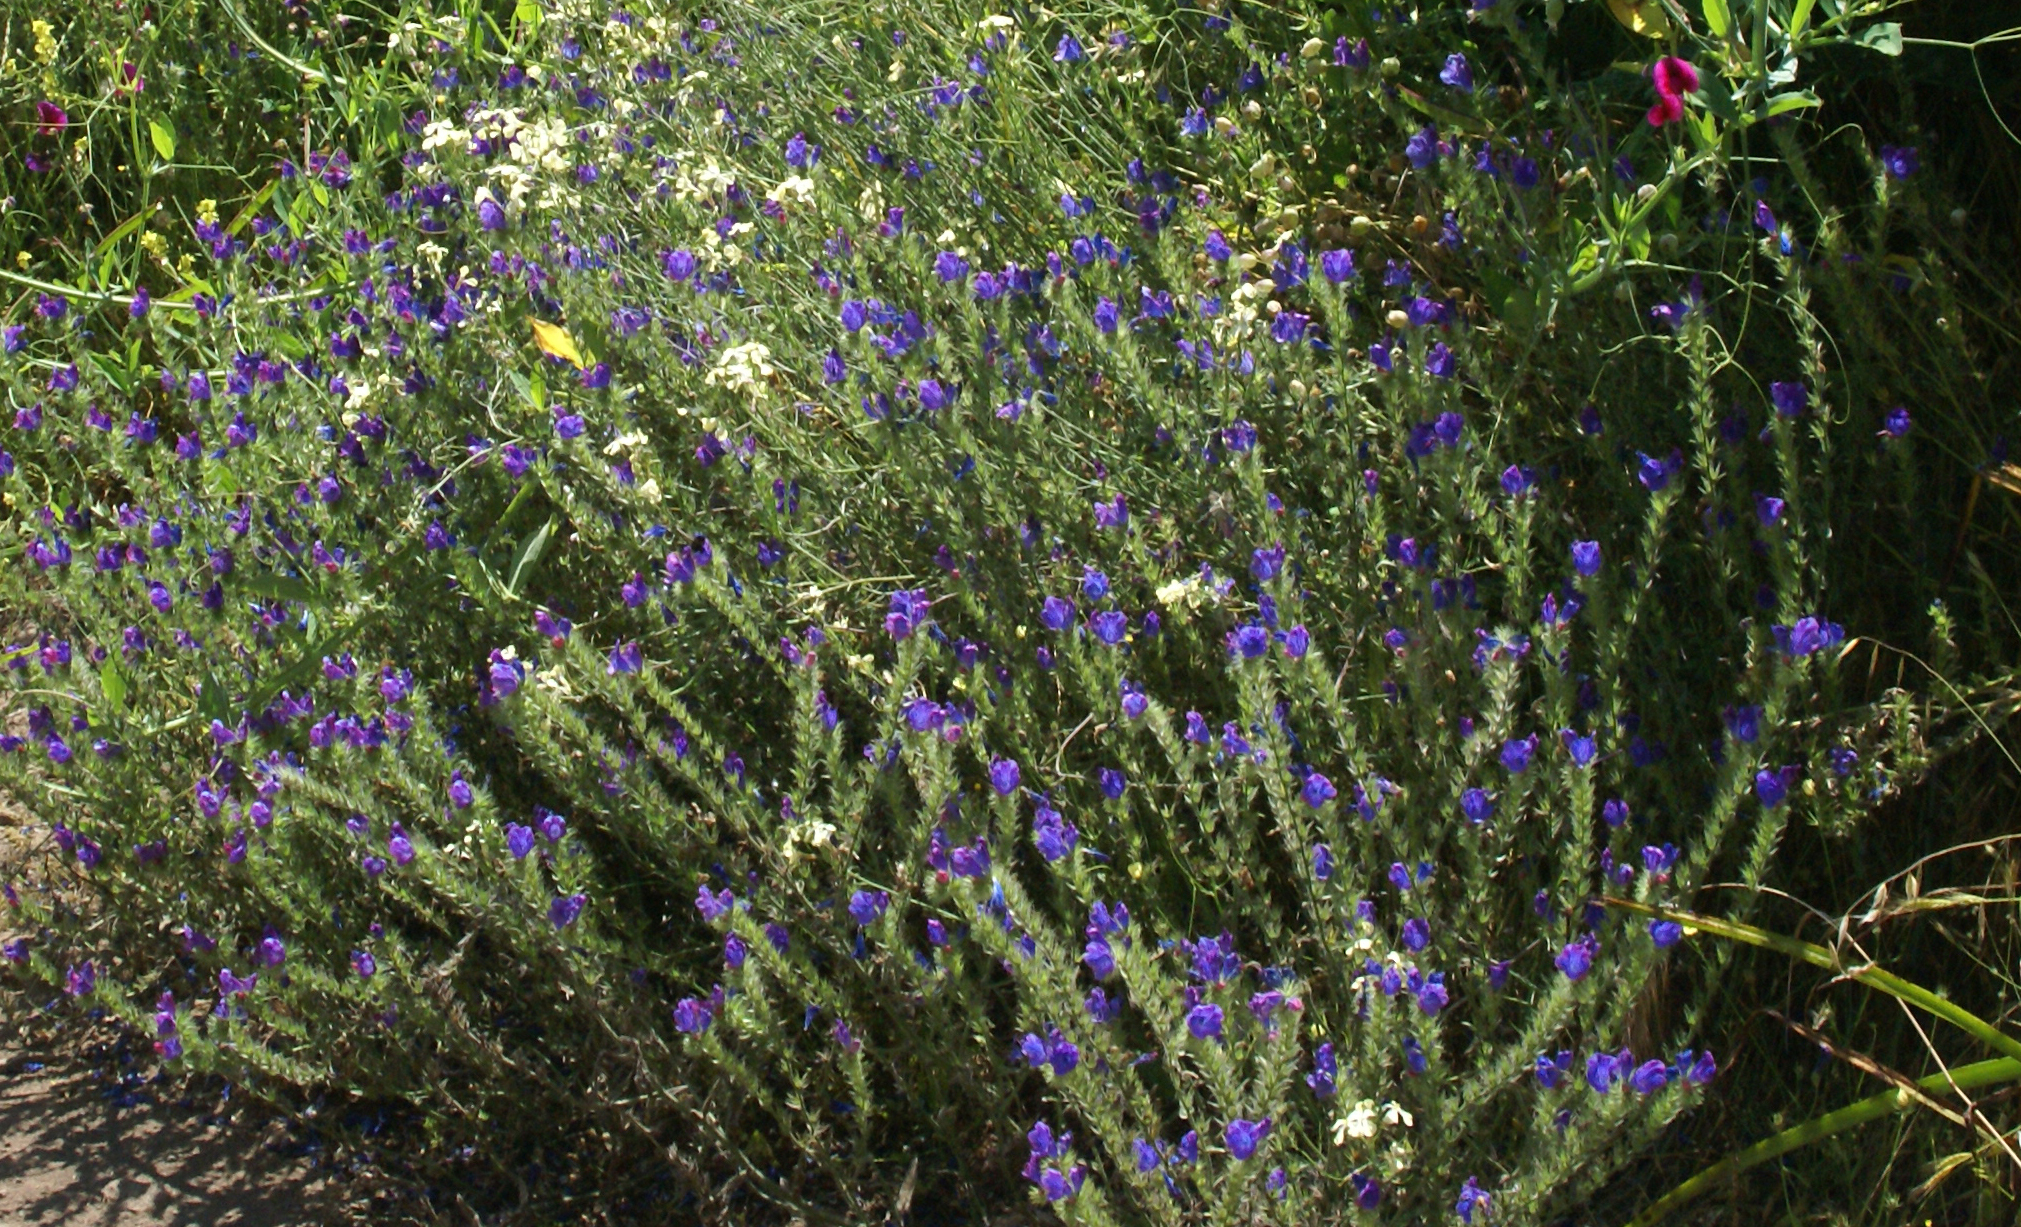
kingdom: Plantae
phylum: Tracheophyta
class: Magnoliopsida
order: Boraginales
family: Boraginaceae
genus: Echium
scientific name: Echium plantagineum
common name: Purple viper's-bugloss
